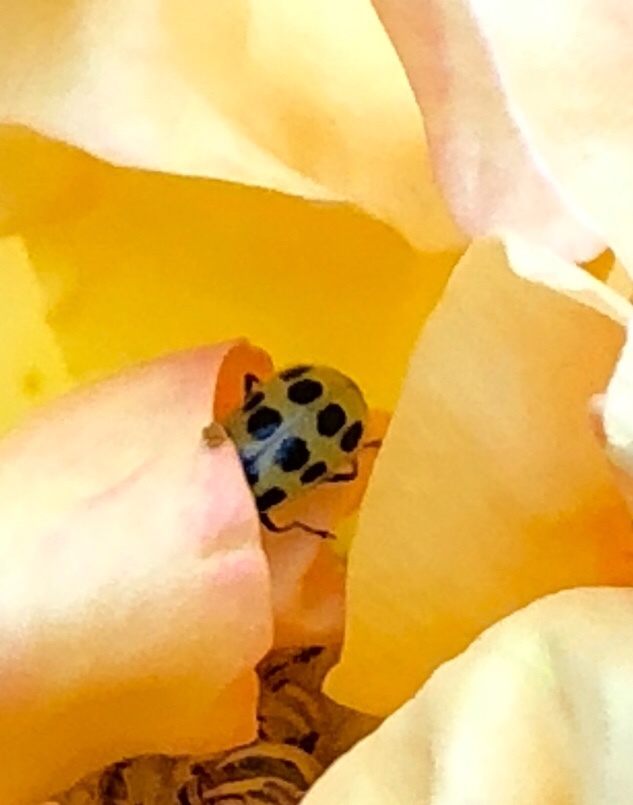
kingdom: Animalia
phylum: Arthropoda
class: Insecta
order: Coleoptera
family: Chrysomelidae
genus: Diabrotica
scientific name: Diabrotica undecimpunctata
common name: Spotted cucumber beetle
